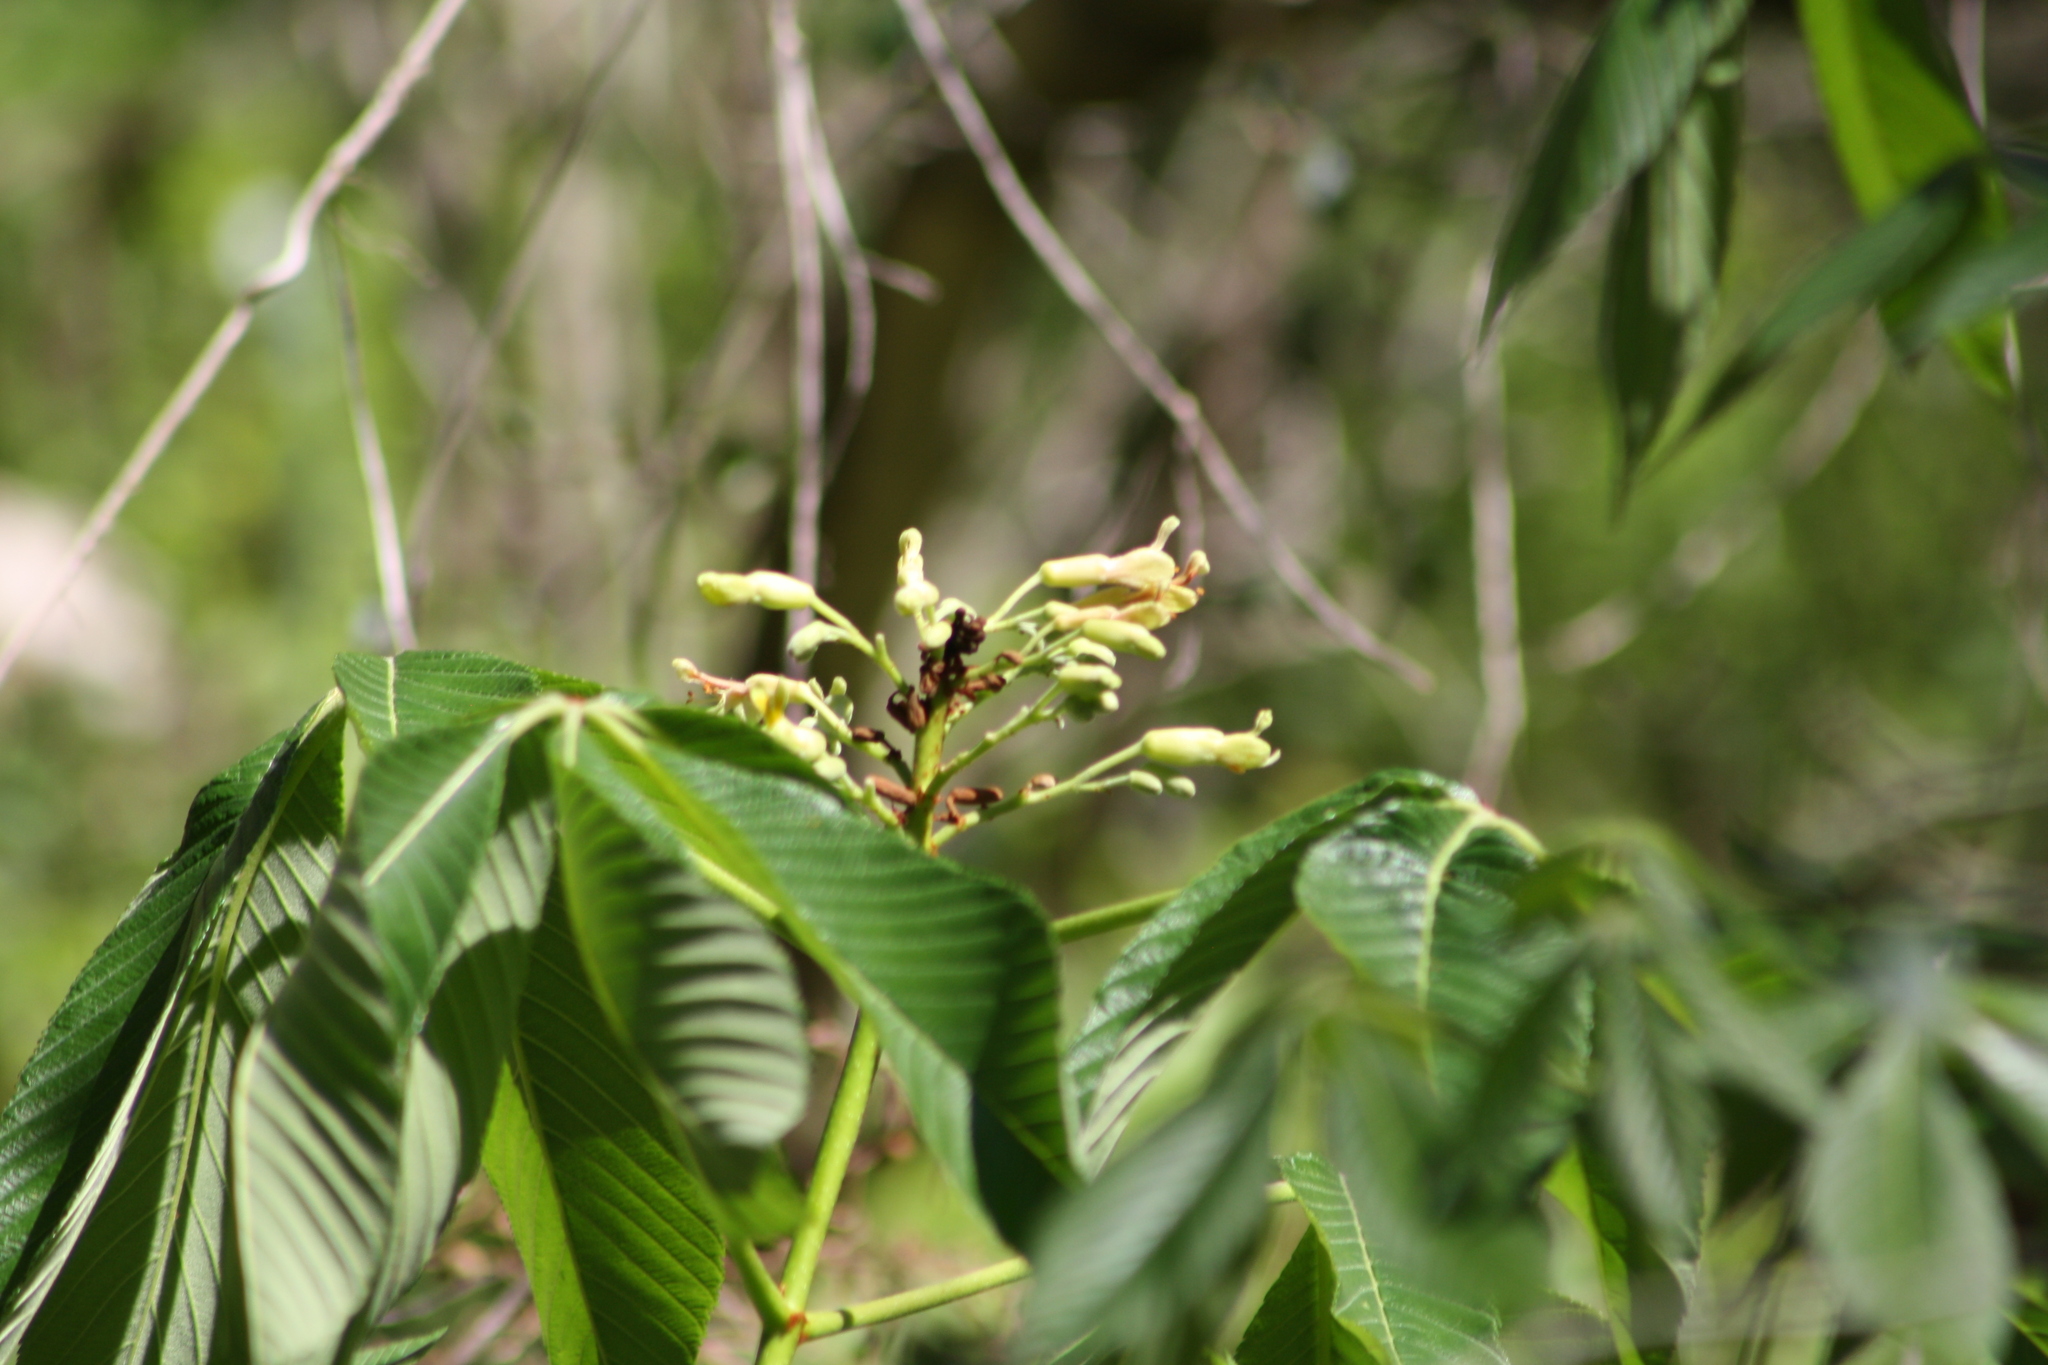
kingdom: Plantae
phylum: Tracheophyta
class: Magnoliopsida
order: Sapindales
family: Sapindaceae
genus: Aesculus
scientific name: Aesculus pavia
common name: Red buckeye
